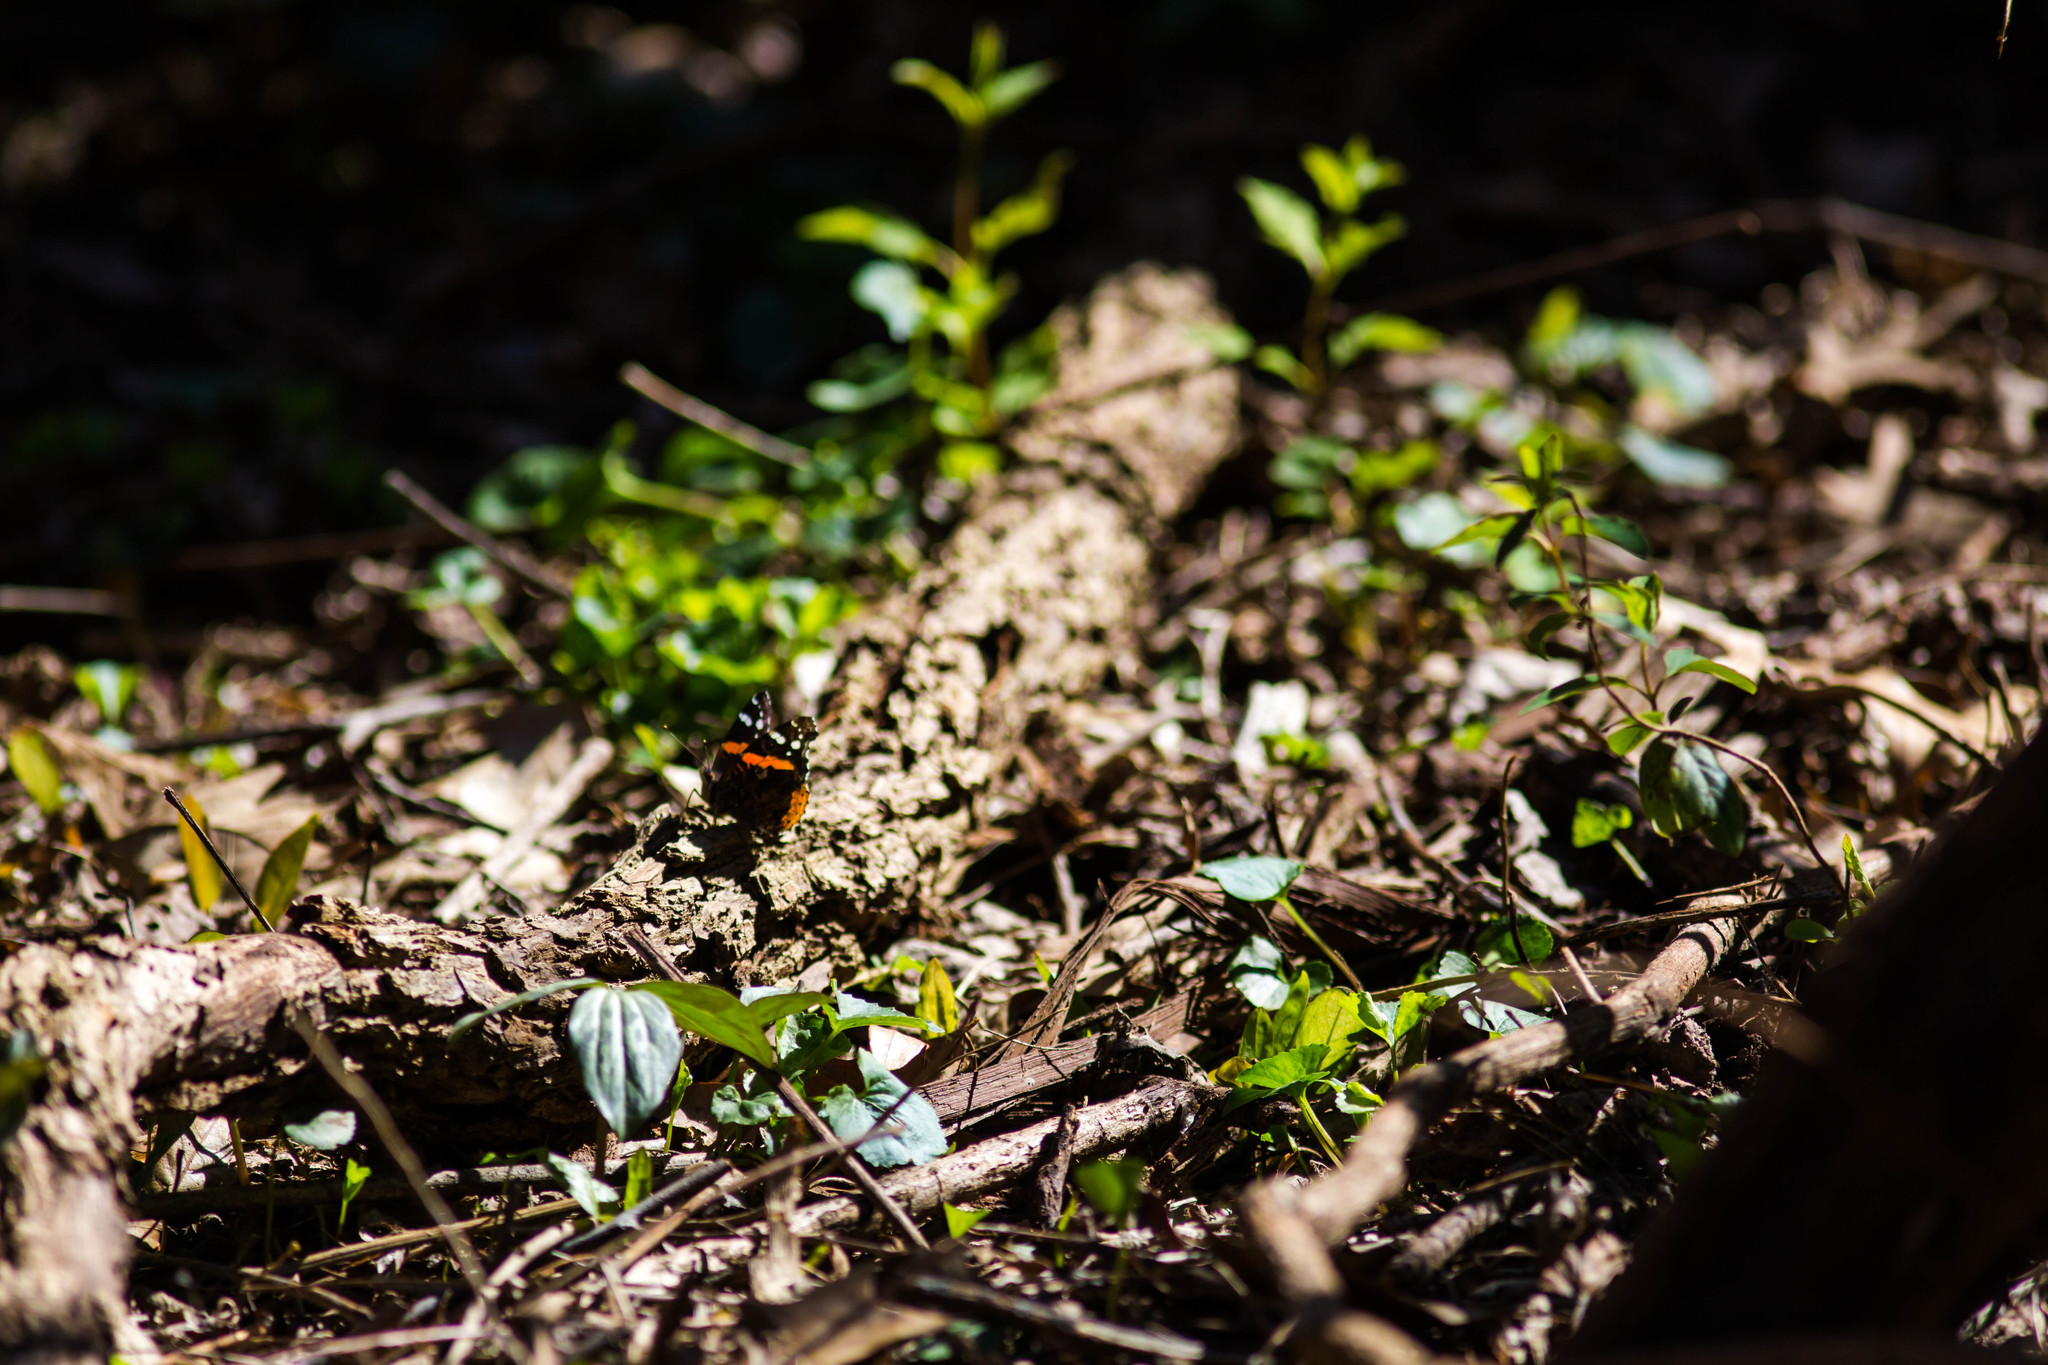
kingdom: Animalia
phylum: Arthropoda
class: Insecta
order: Lepidoptera
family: Nymphalidae
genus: Vanessa
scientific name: Vanessa atalanta
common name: Red admiral
